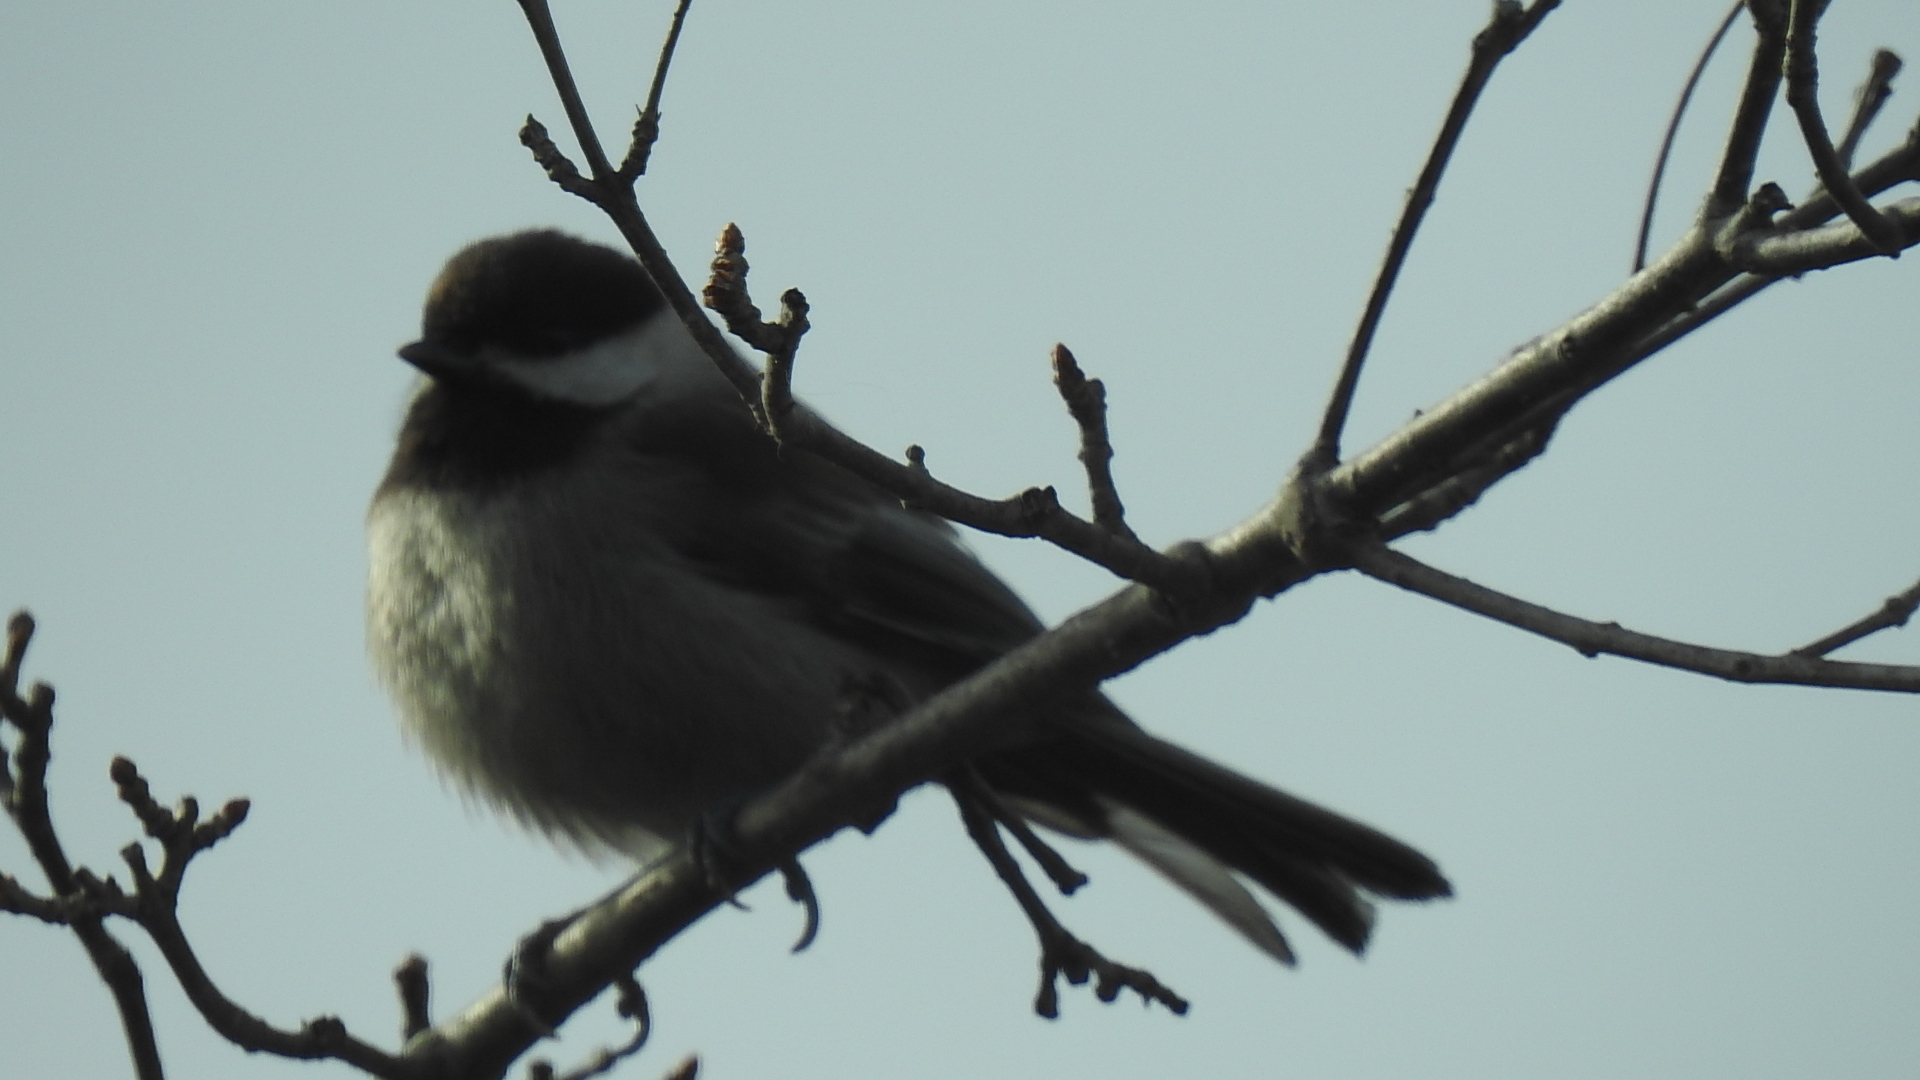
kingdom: Animalia
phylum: Chordata
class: Aves
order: Passeriformes
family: Paridae
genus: Poecile
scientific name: Poecile rufescens
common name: Chestnut-backed chickadee
